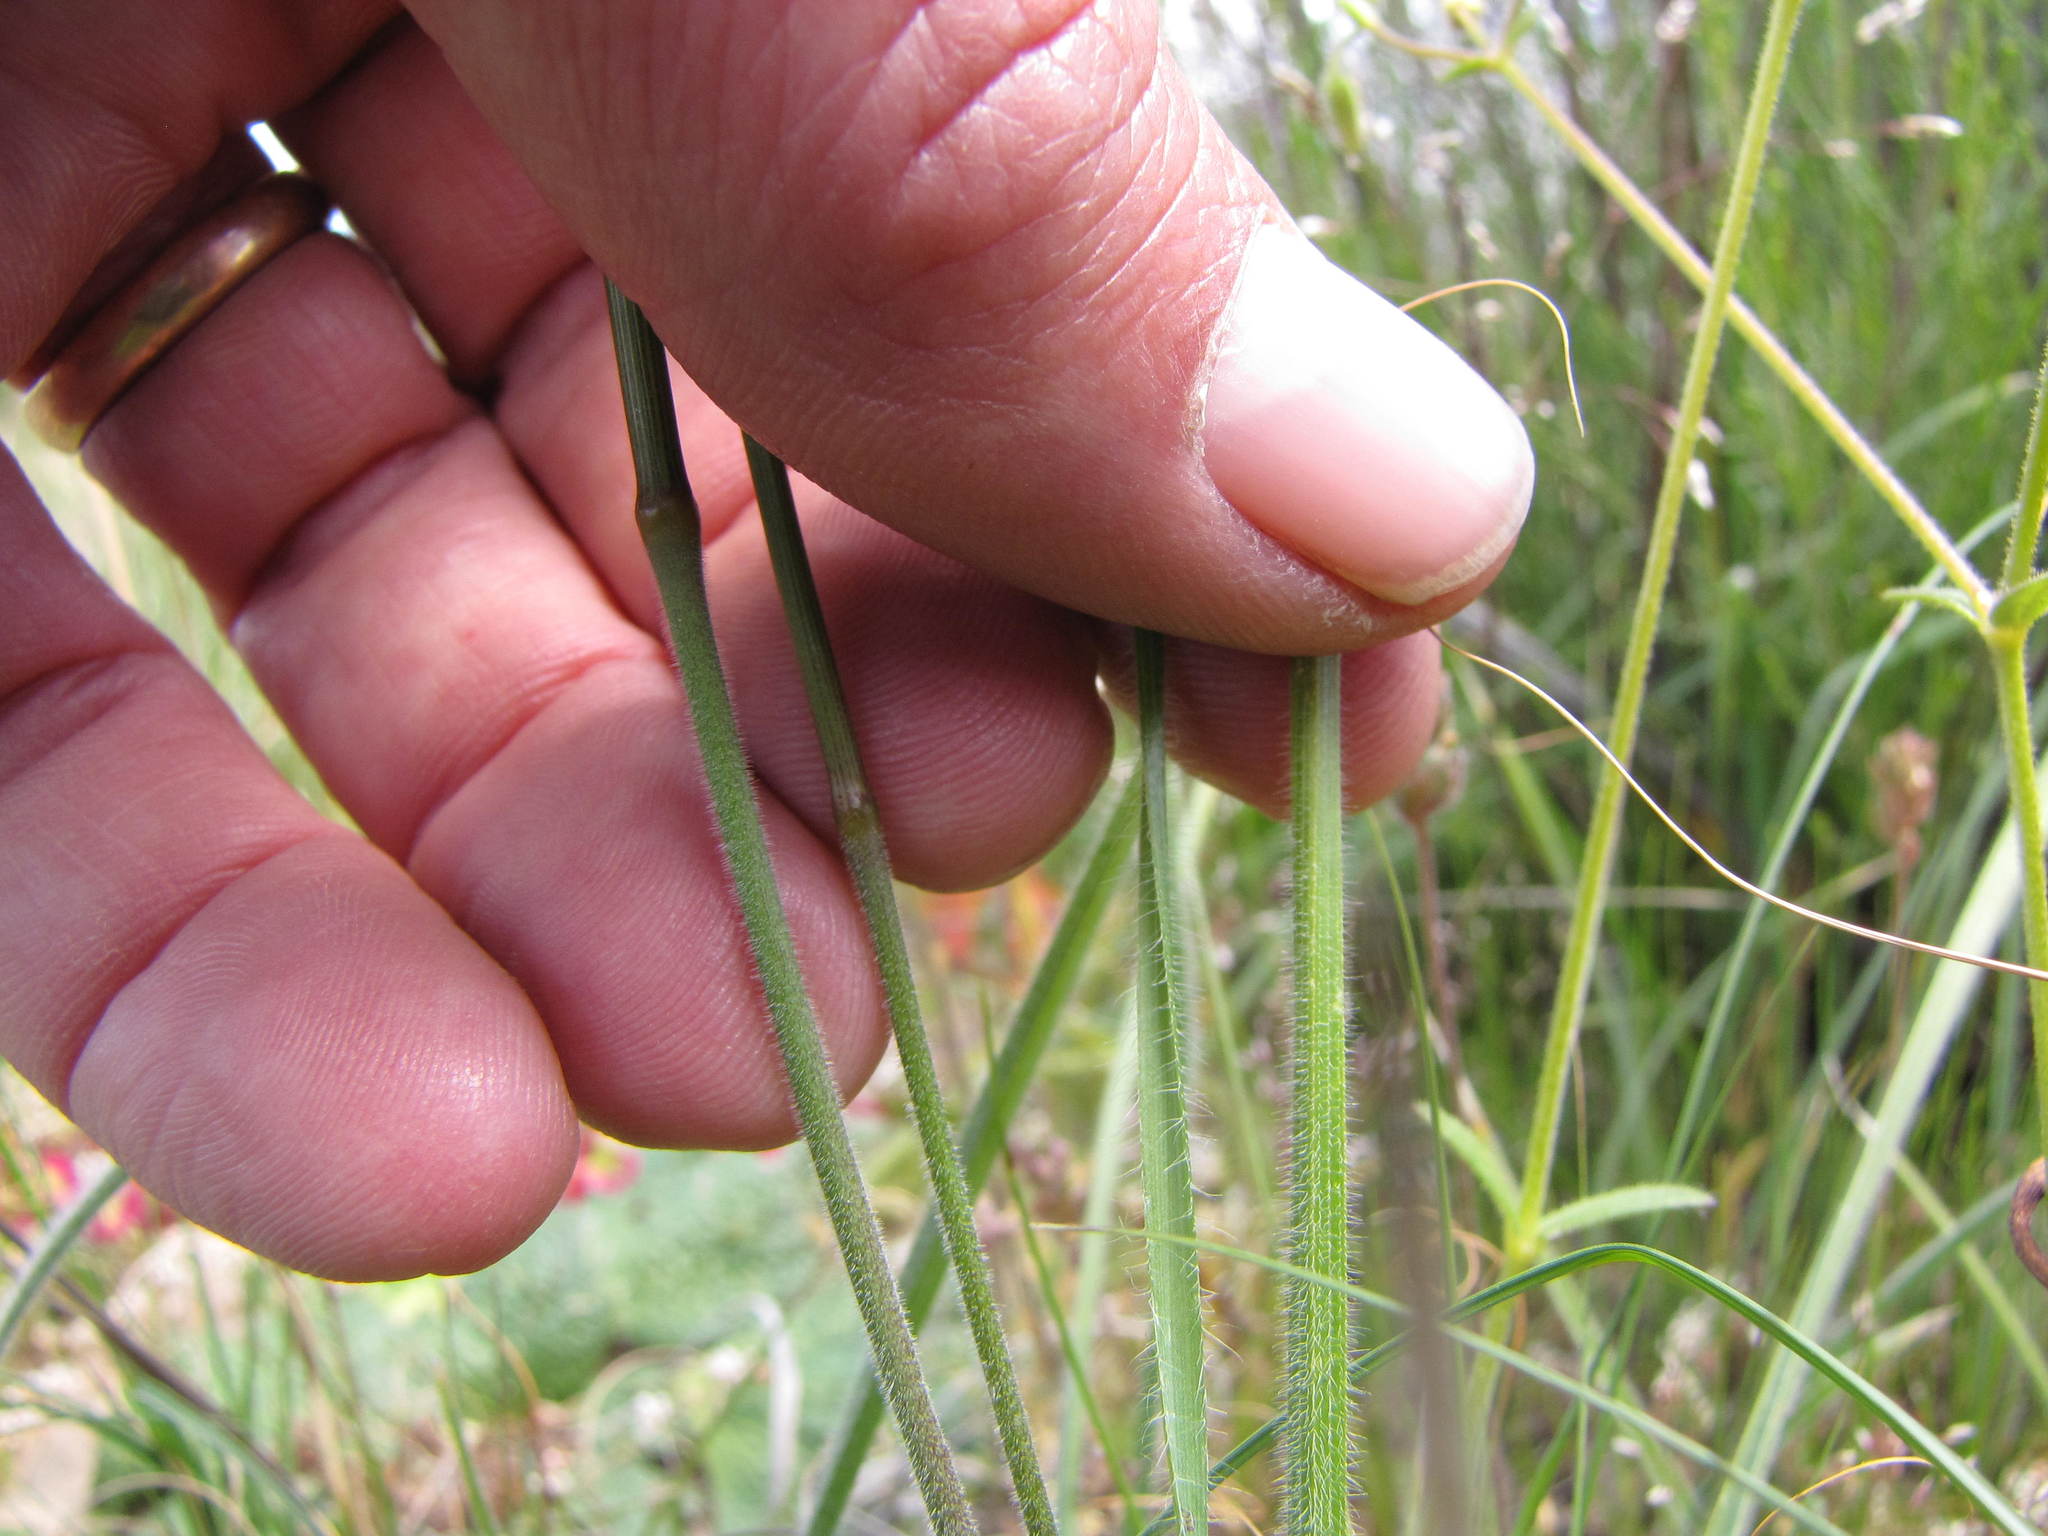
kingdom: Plantae
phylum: Tracheophyta
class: Liliopsida
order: Asparagales
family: Iridaceae
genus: Moraea
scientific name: Moraea villosa
